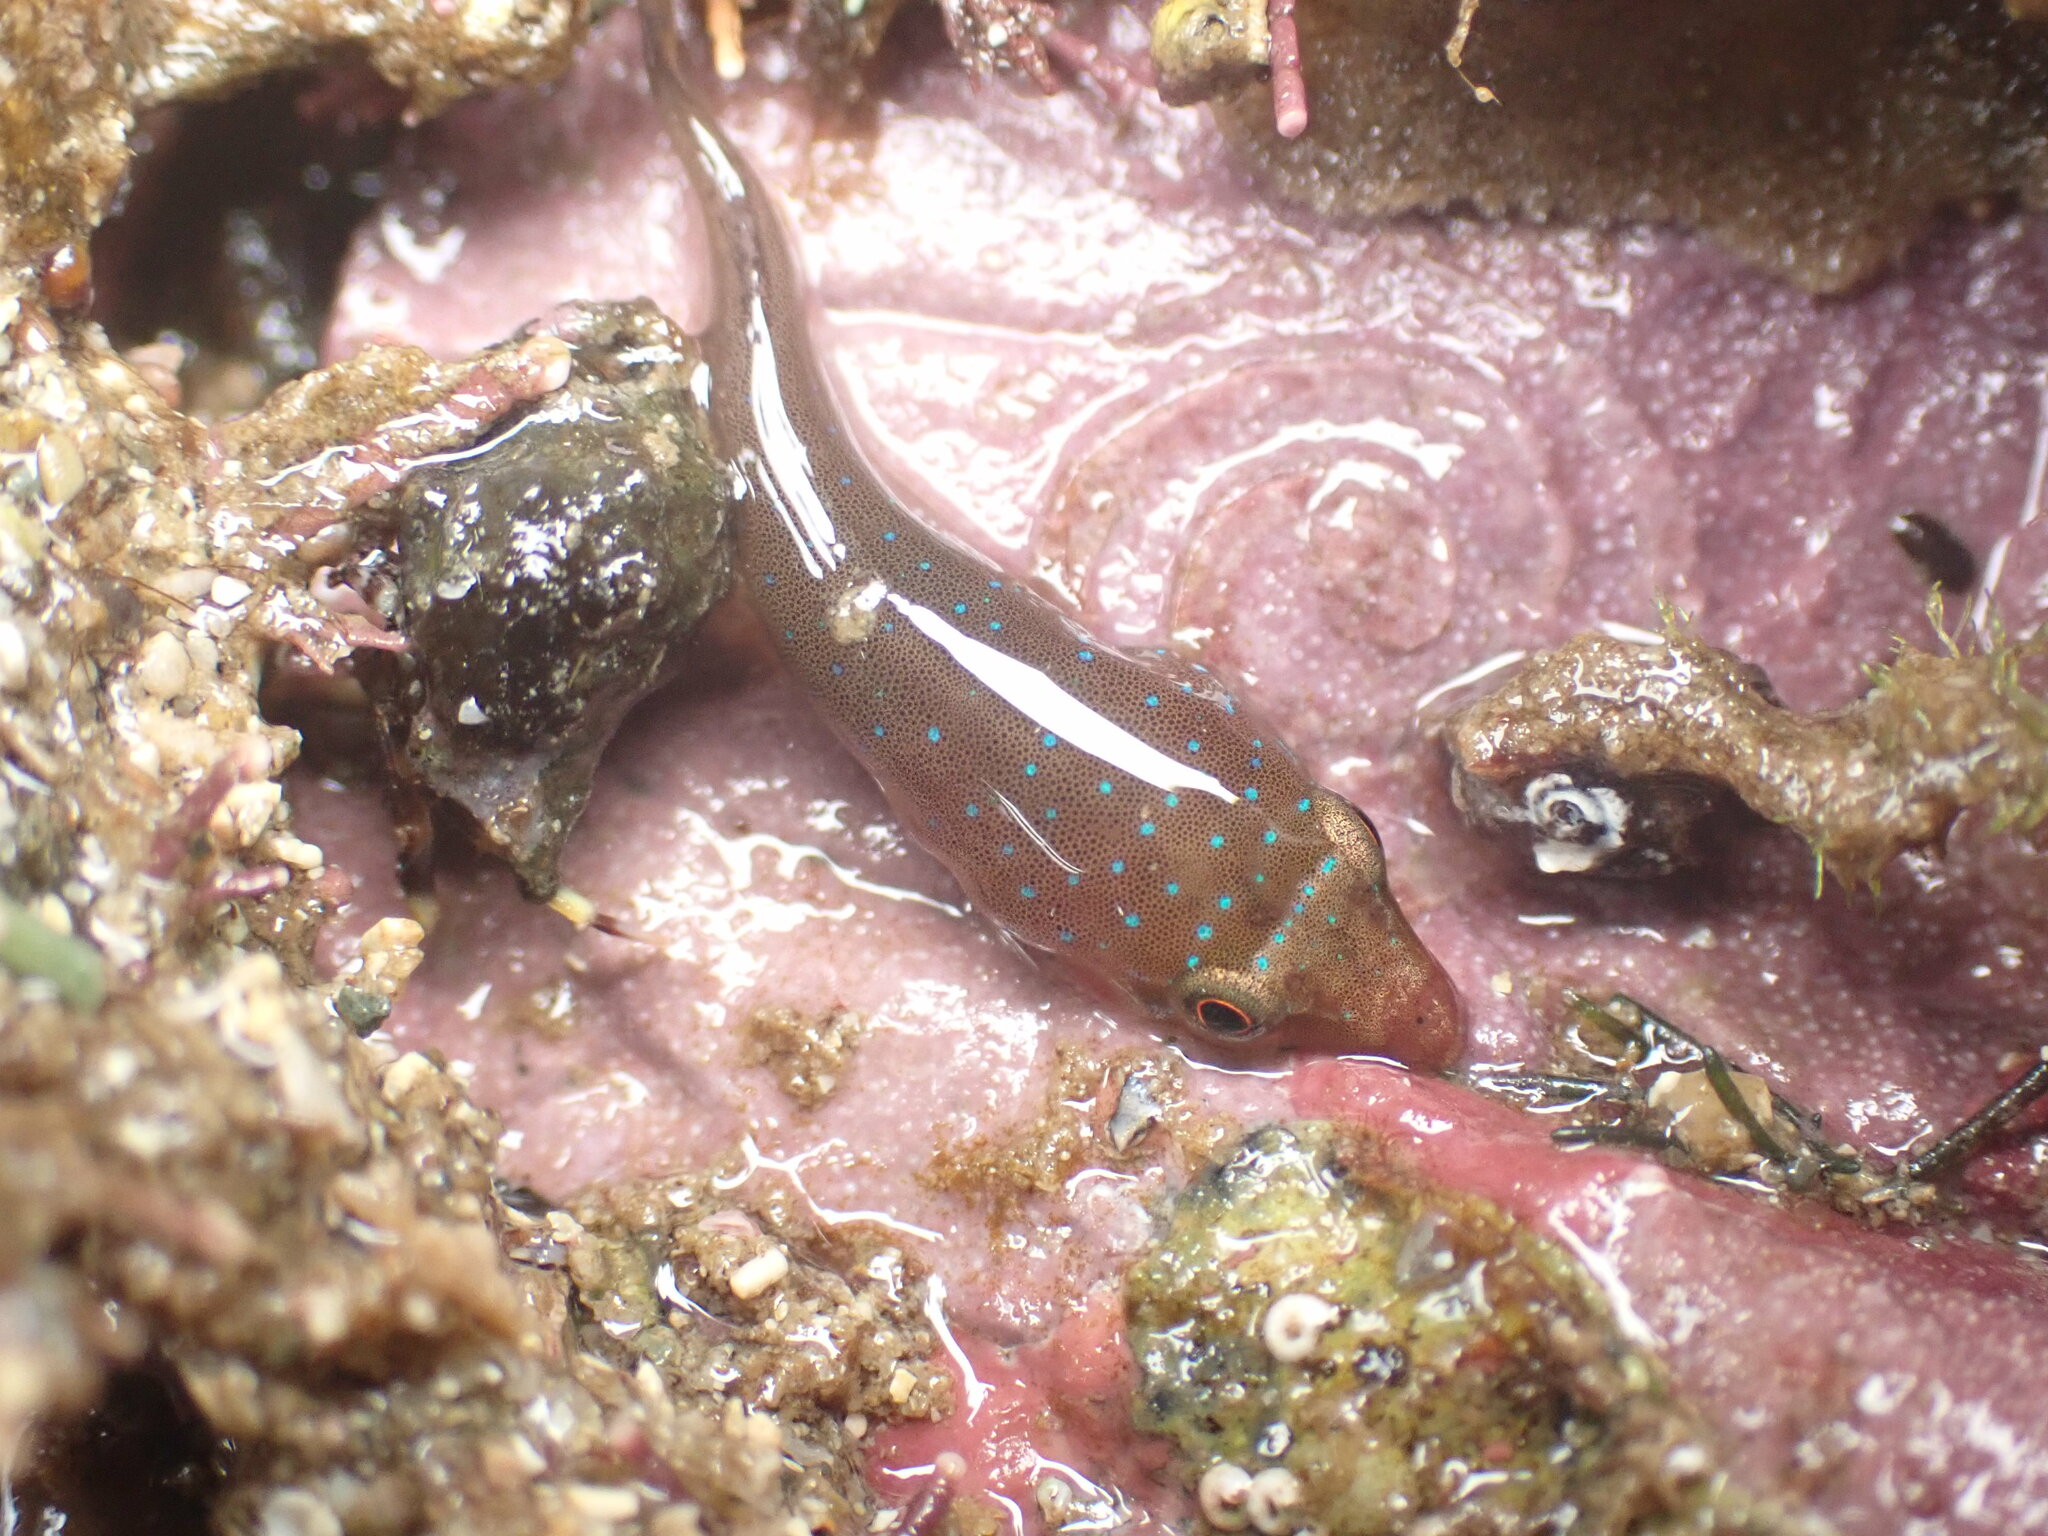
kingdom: Animalia
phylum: Chordata
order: Gobiesociformes
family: Gobiesocidae
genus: Dellichthys
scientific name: Dellichthys morelandi
